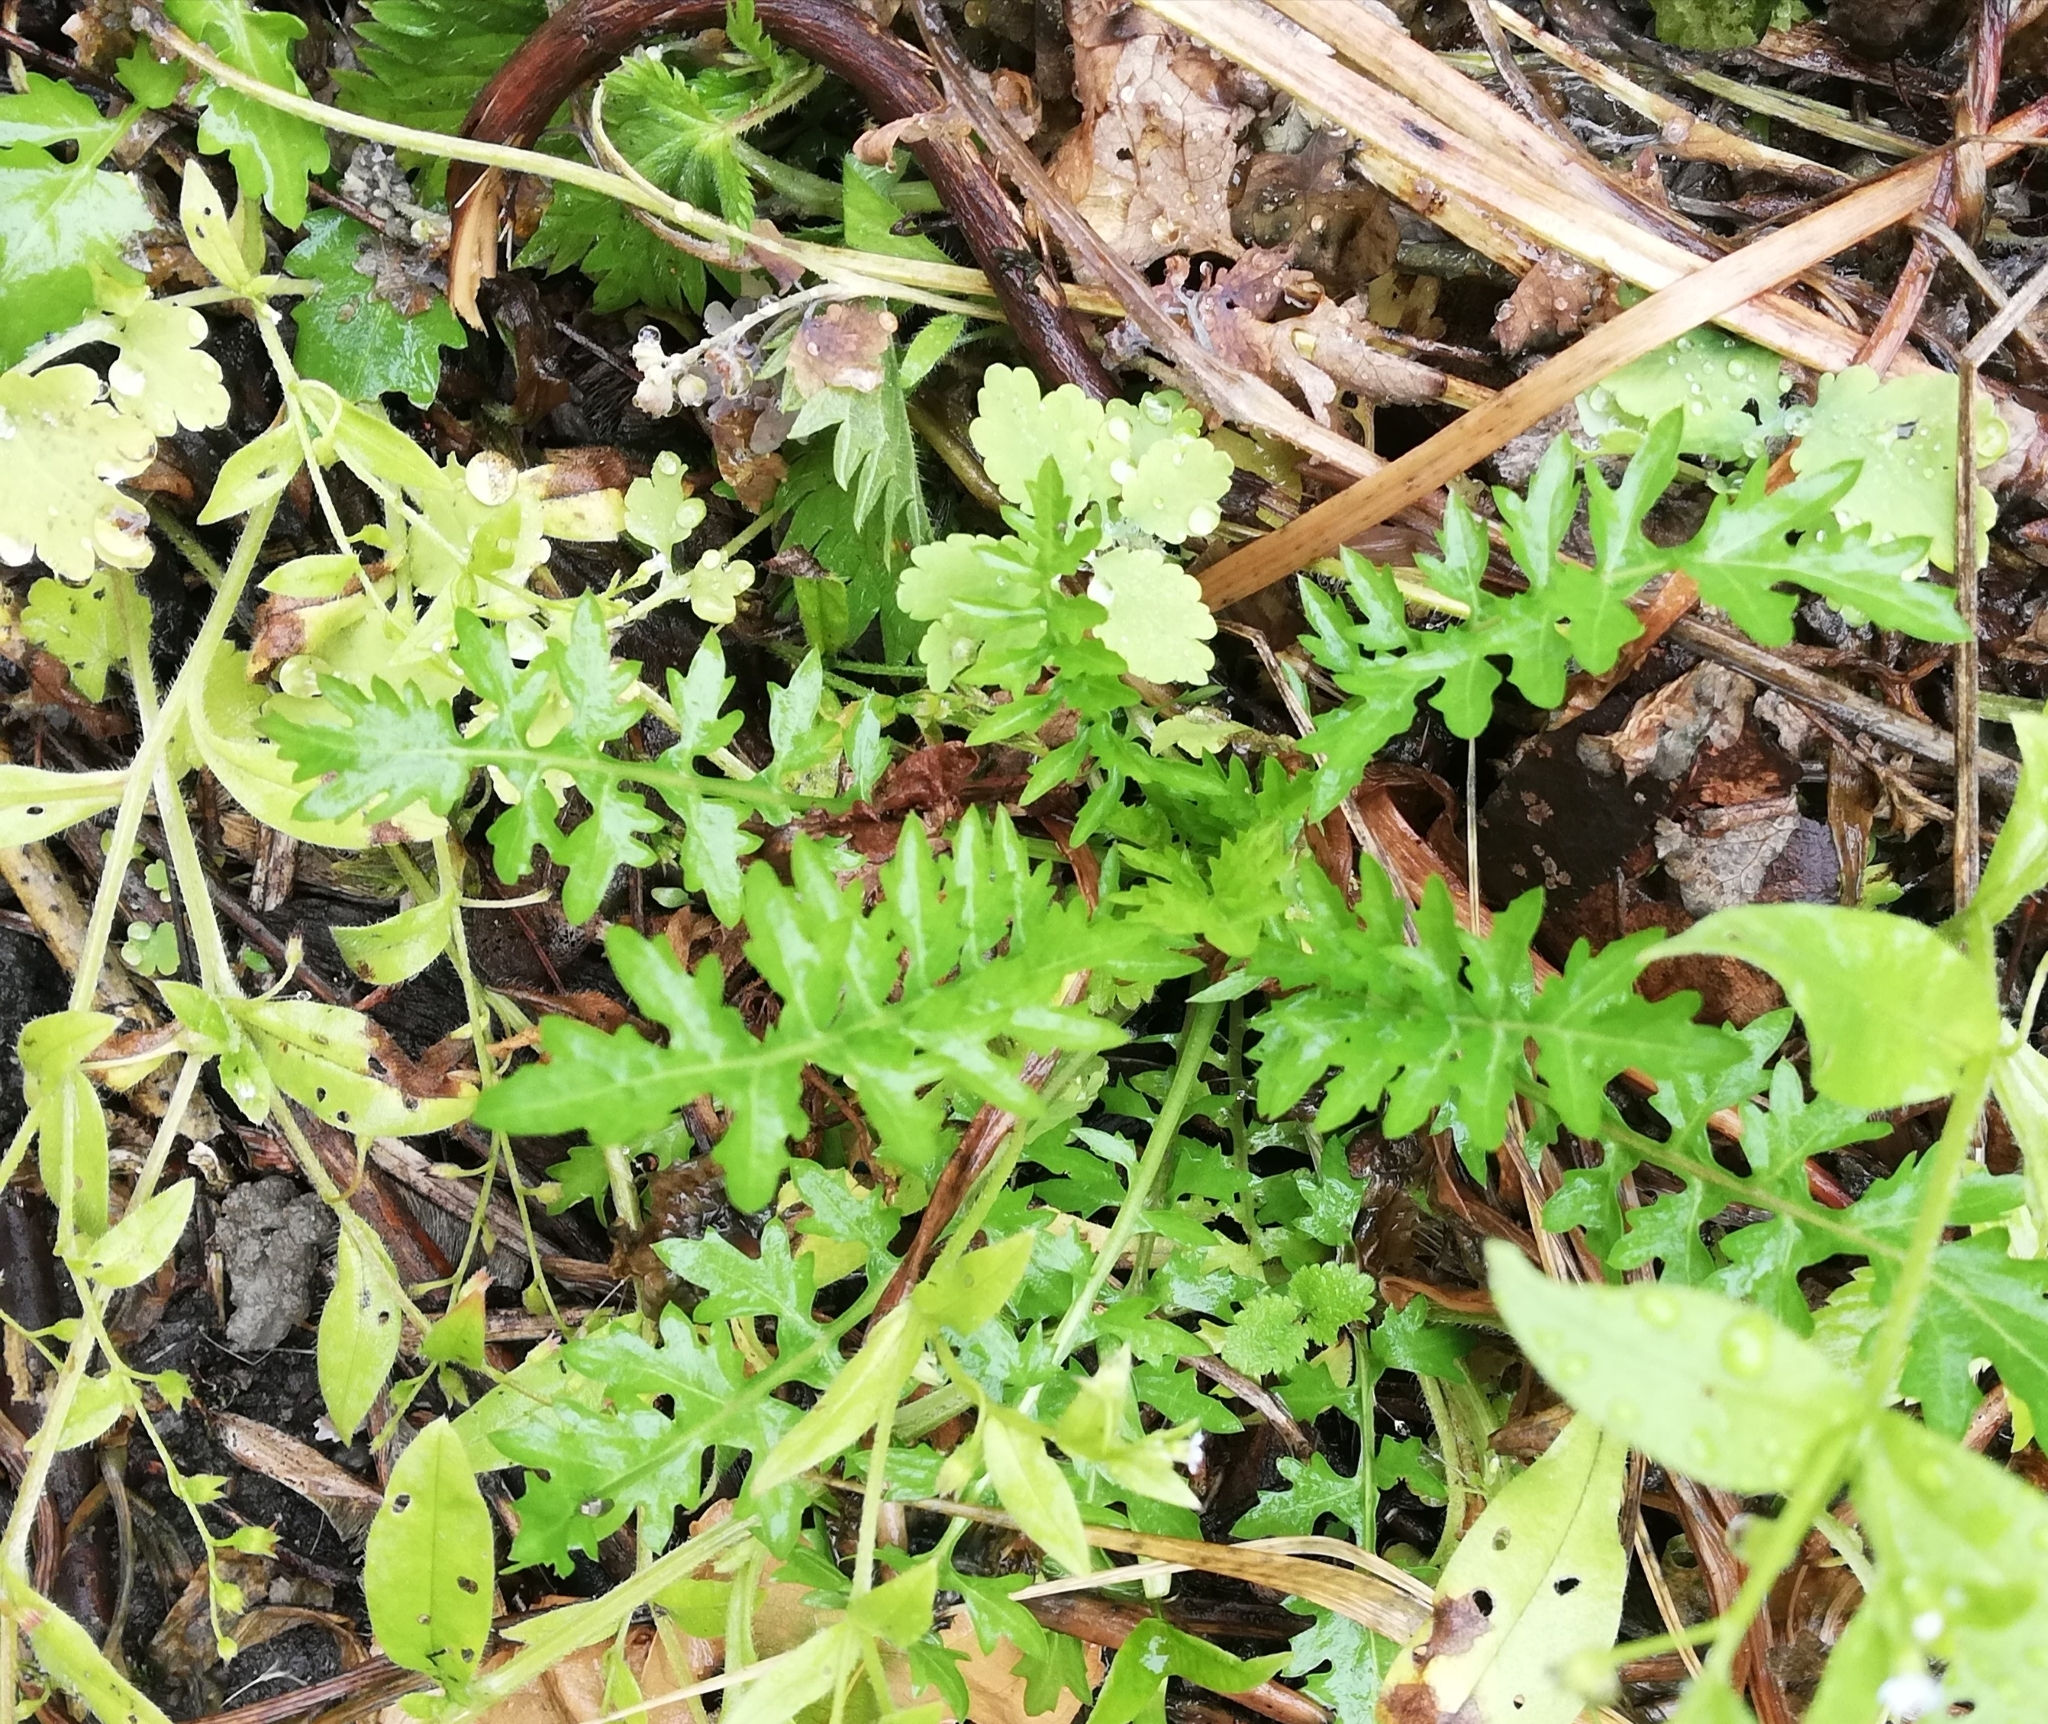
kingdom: Plantae
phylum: Tracheophyta
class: Magnoliopsida
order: Brassicales
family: Brassicaceae
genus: Rorippa
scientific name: Rorippa palustris
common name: Marsh yellow-cress
